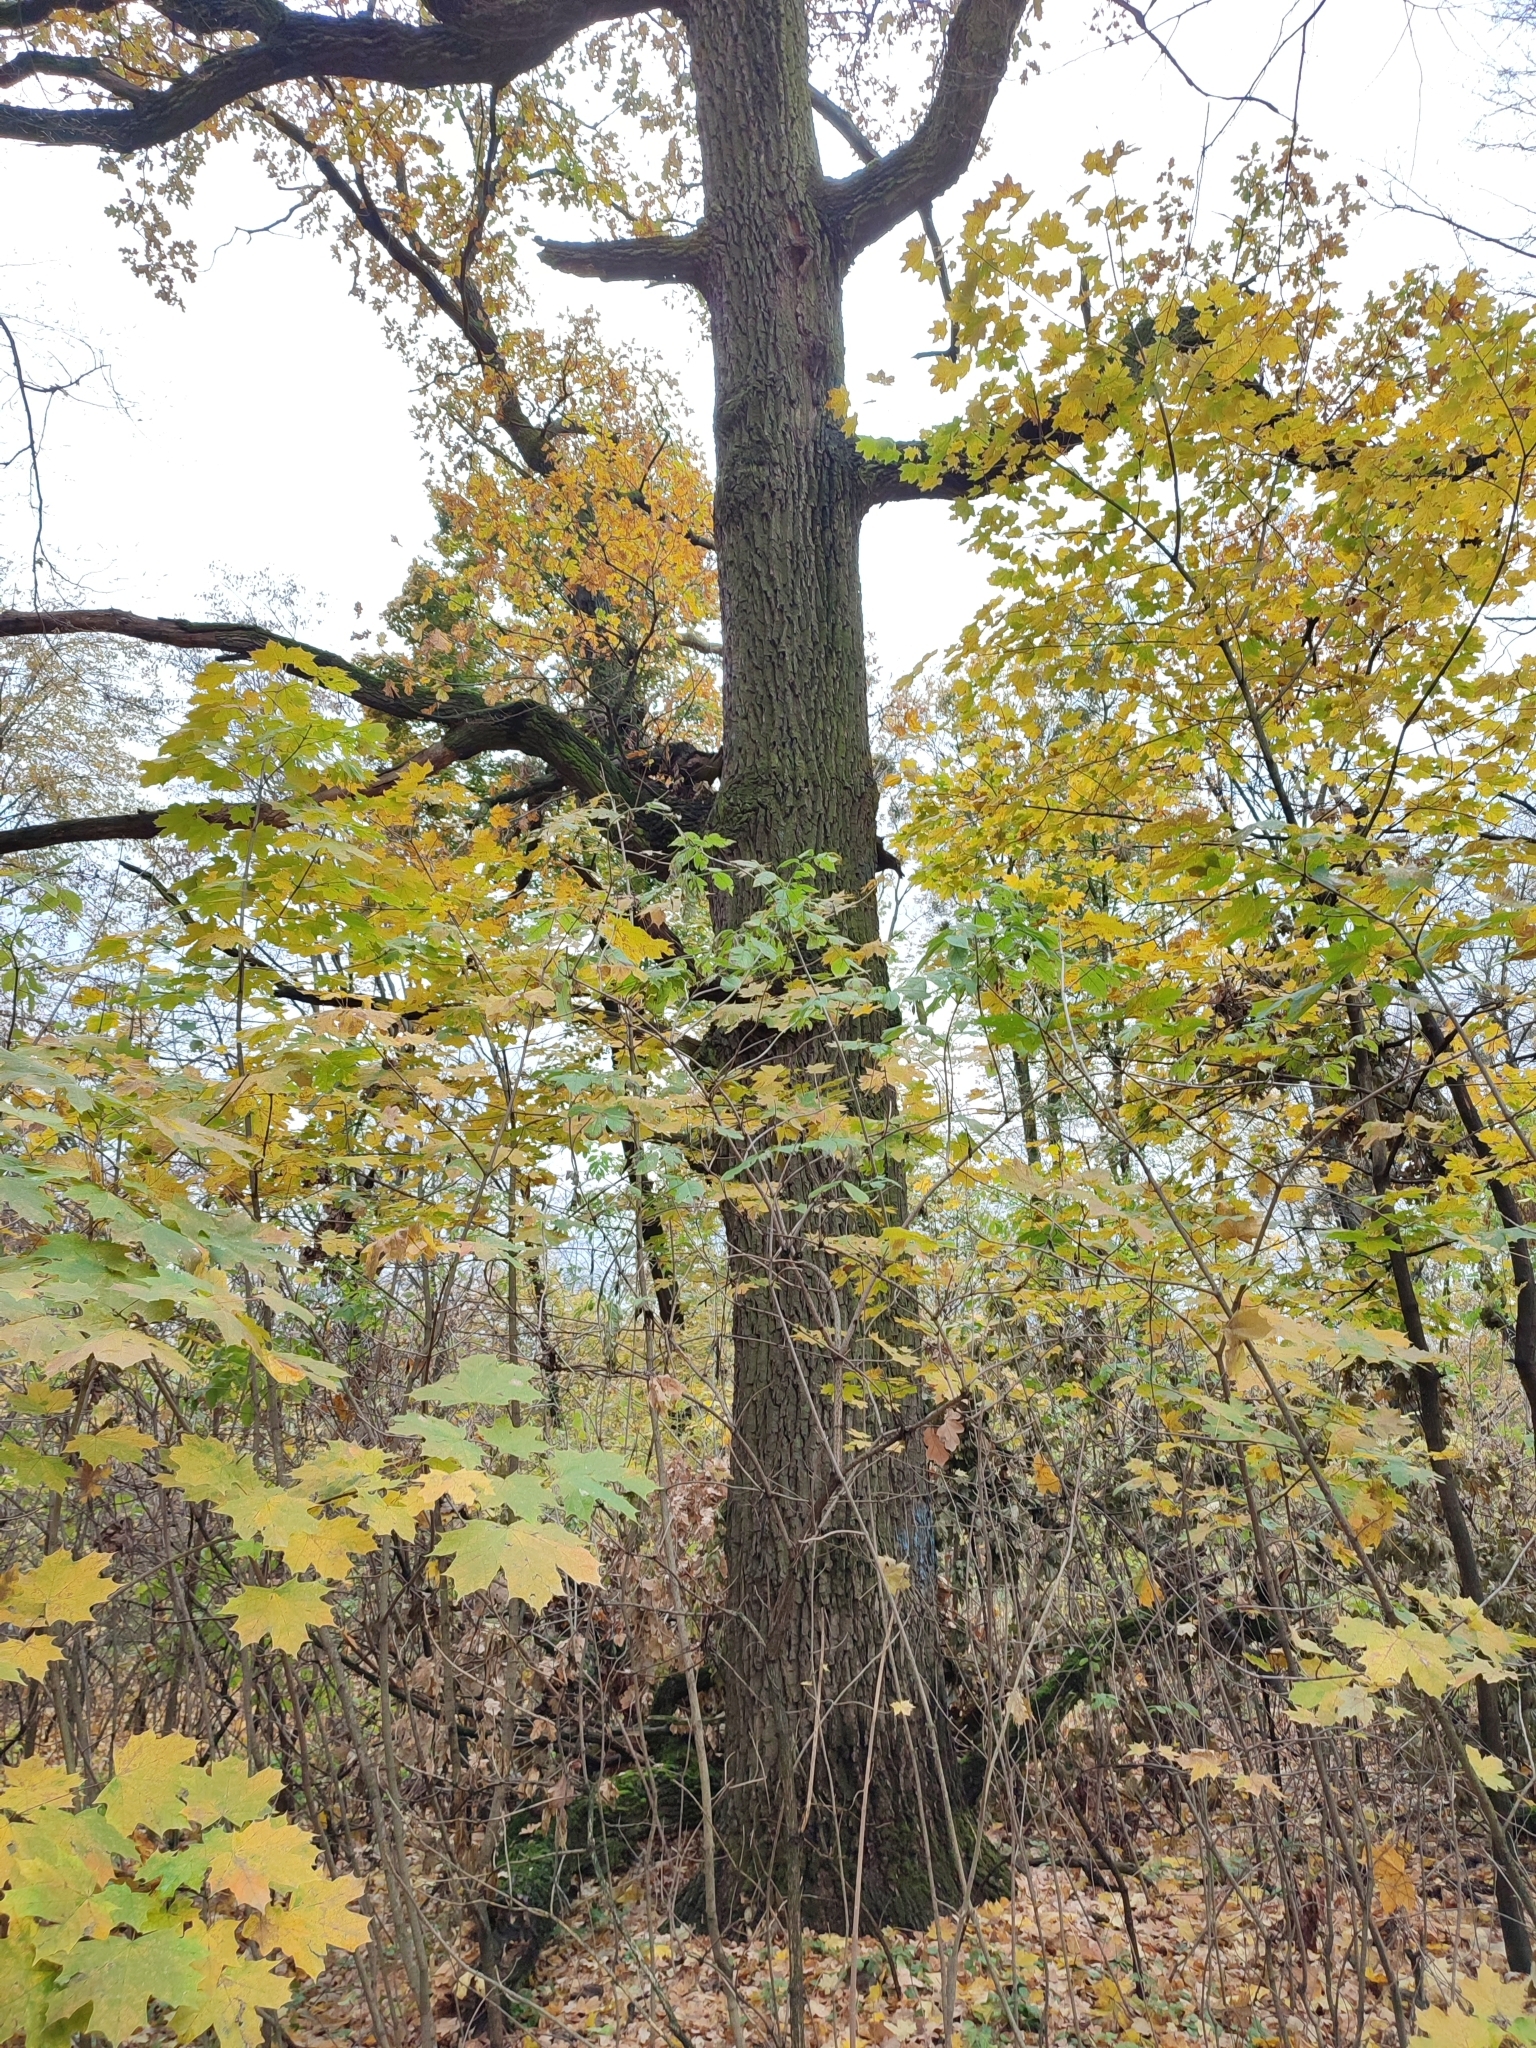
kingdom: Plantae
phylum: Tracheophyta
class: Magnoliopsida
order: Fagales
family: Fagaceae
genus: Quercus
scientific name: Quercus robur
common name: Pedunculate oak
